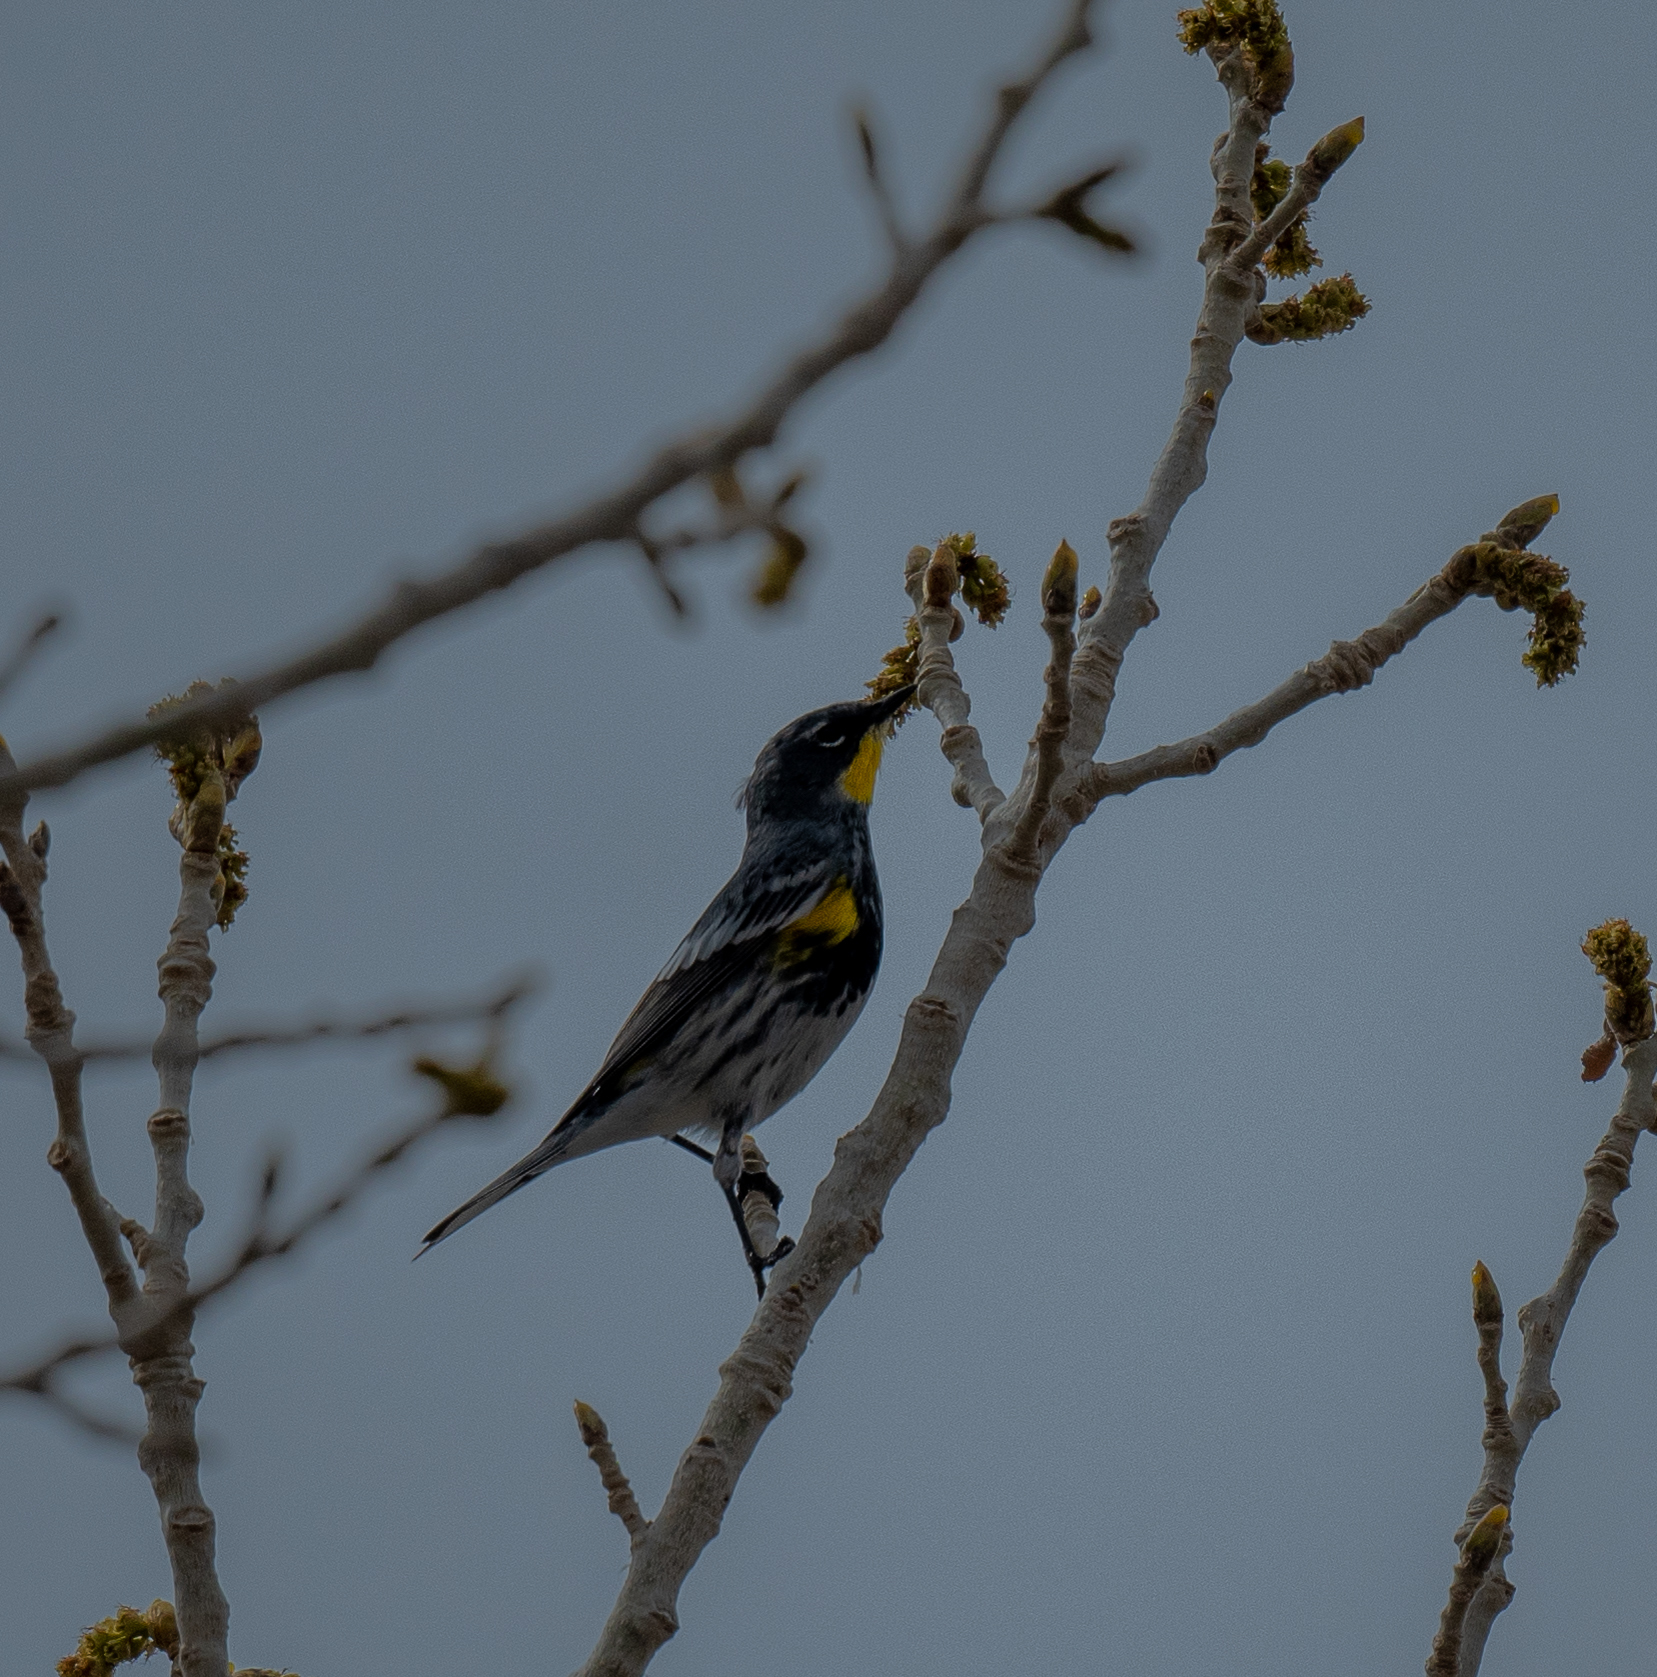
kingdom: Animalia
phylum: Chordata
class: Aves
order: Passeriformes
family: Parulidae
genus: Setophaga
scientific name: Setophaga coronata
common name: Myrtle warbler
